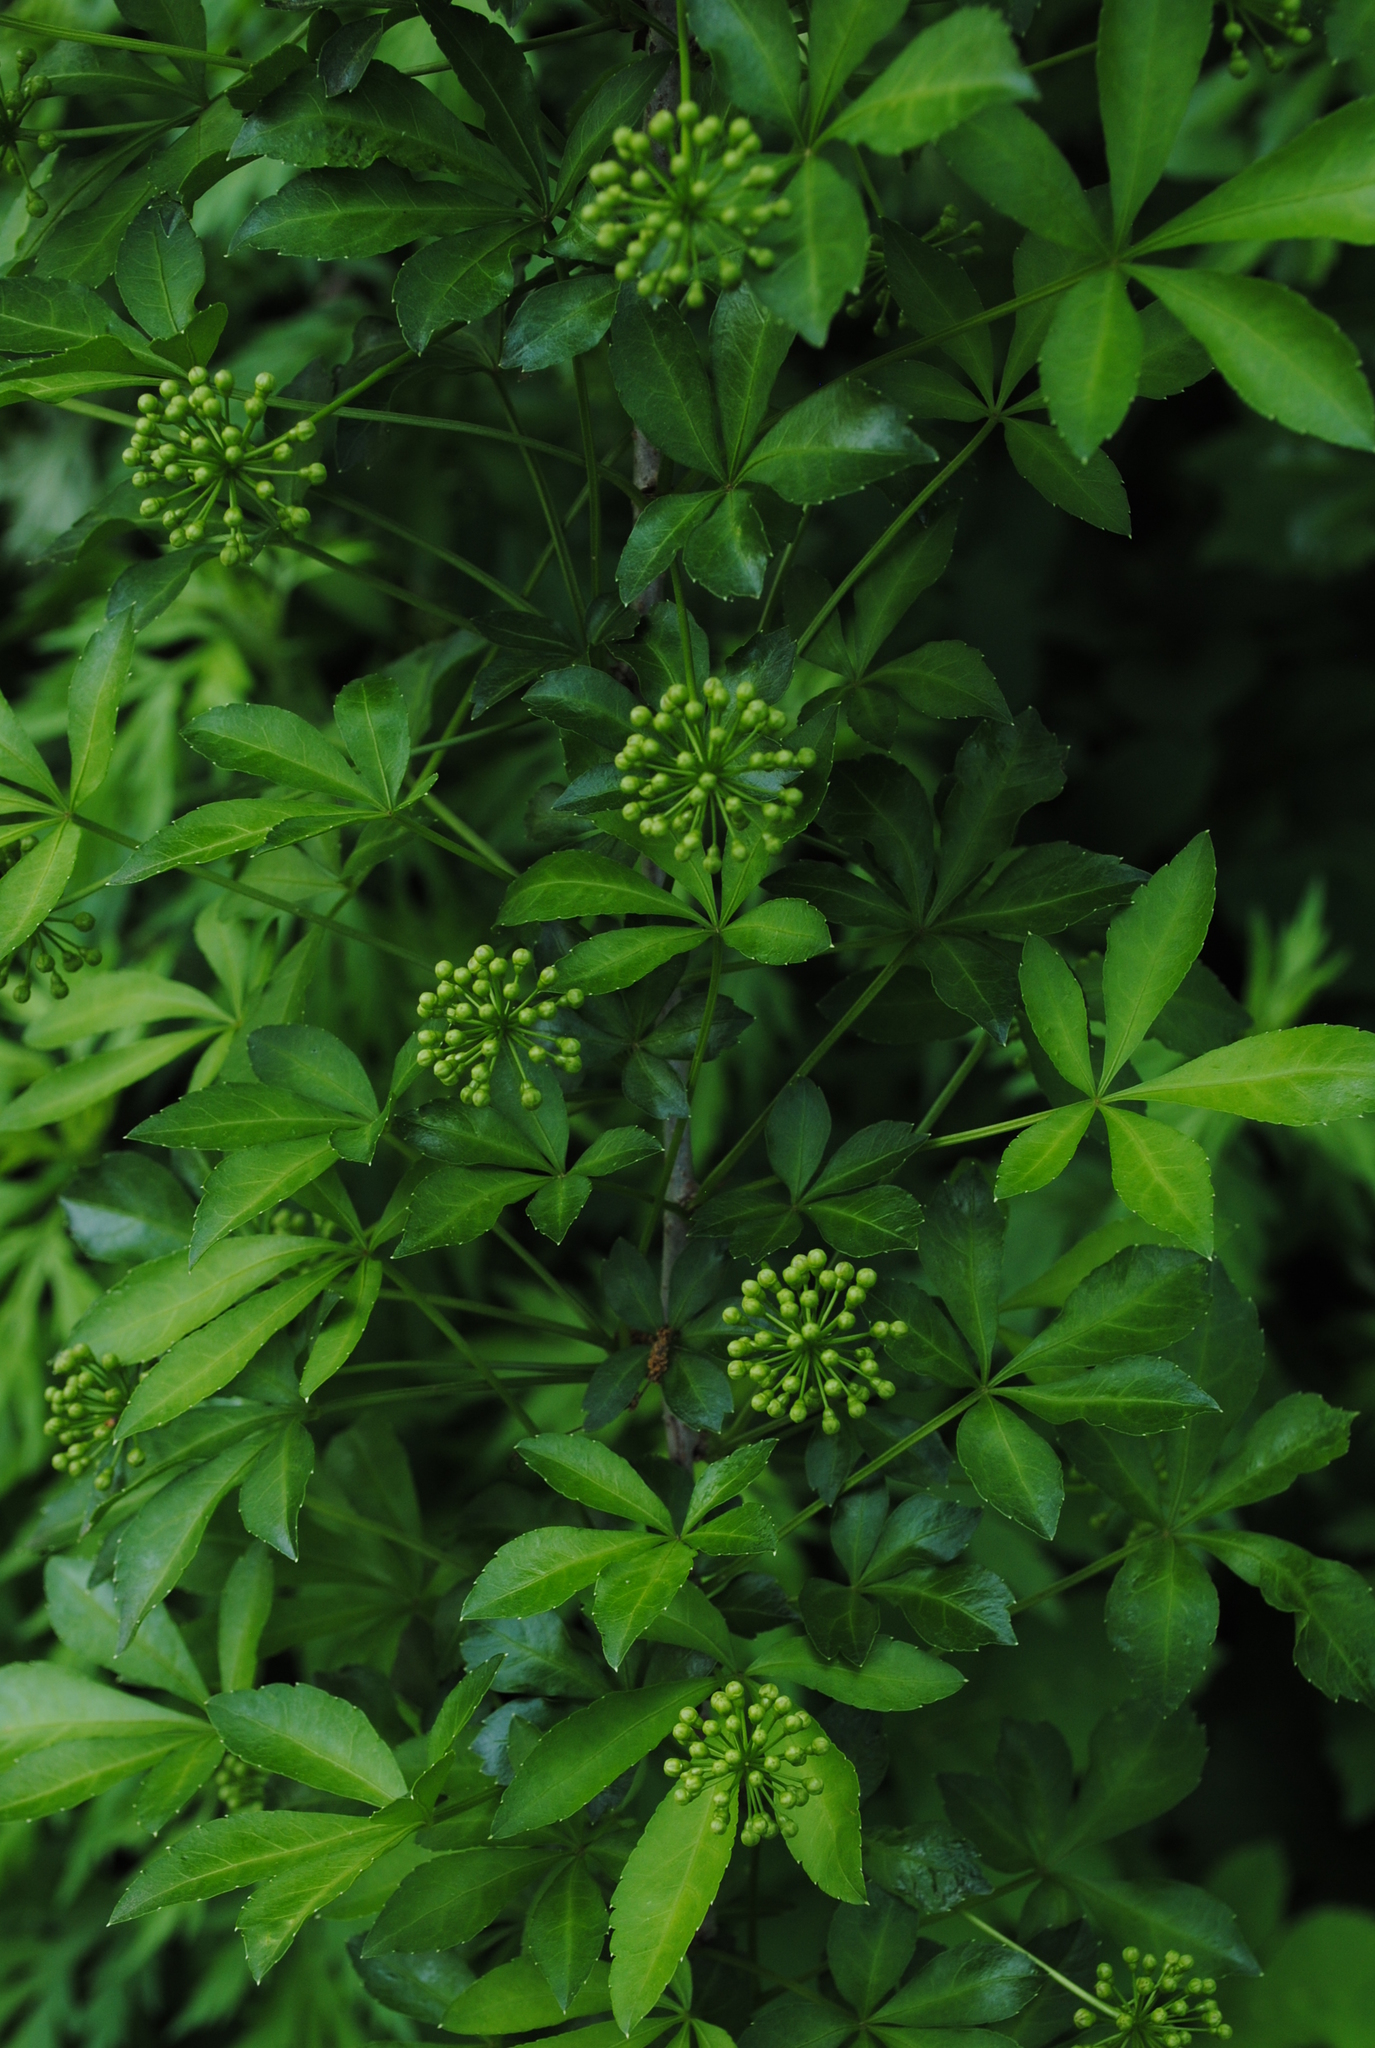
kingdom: Plantae
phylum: Tracheophyta
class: Magnoliopsida
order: Apiales
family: Araliaceae
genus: Eleutherococcus
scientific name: Eleutherococcus sieboldianus
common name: Ginseng
